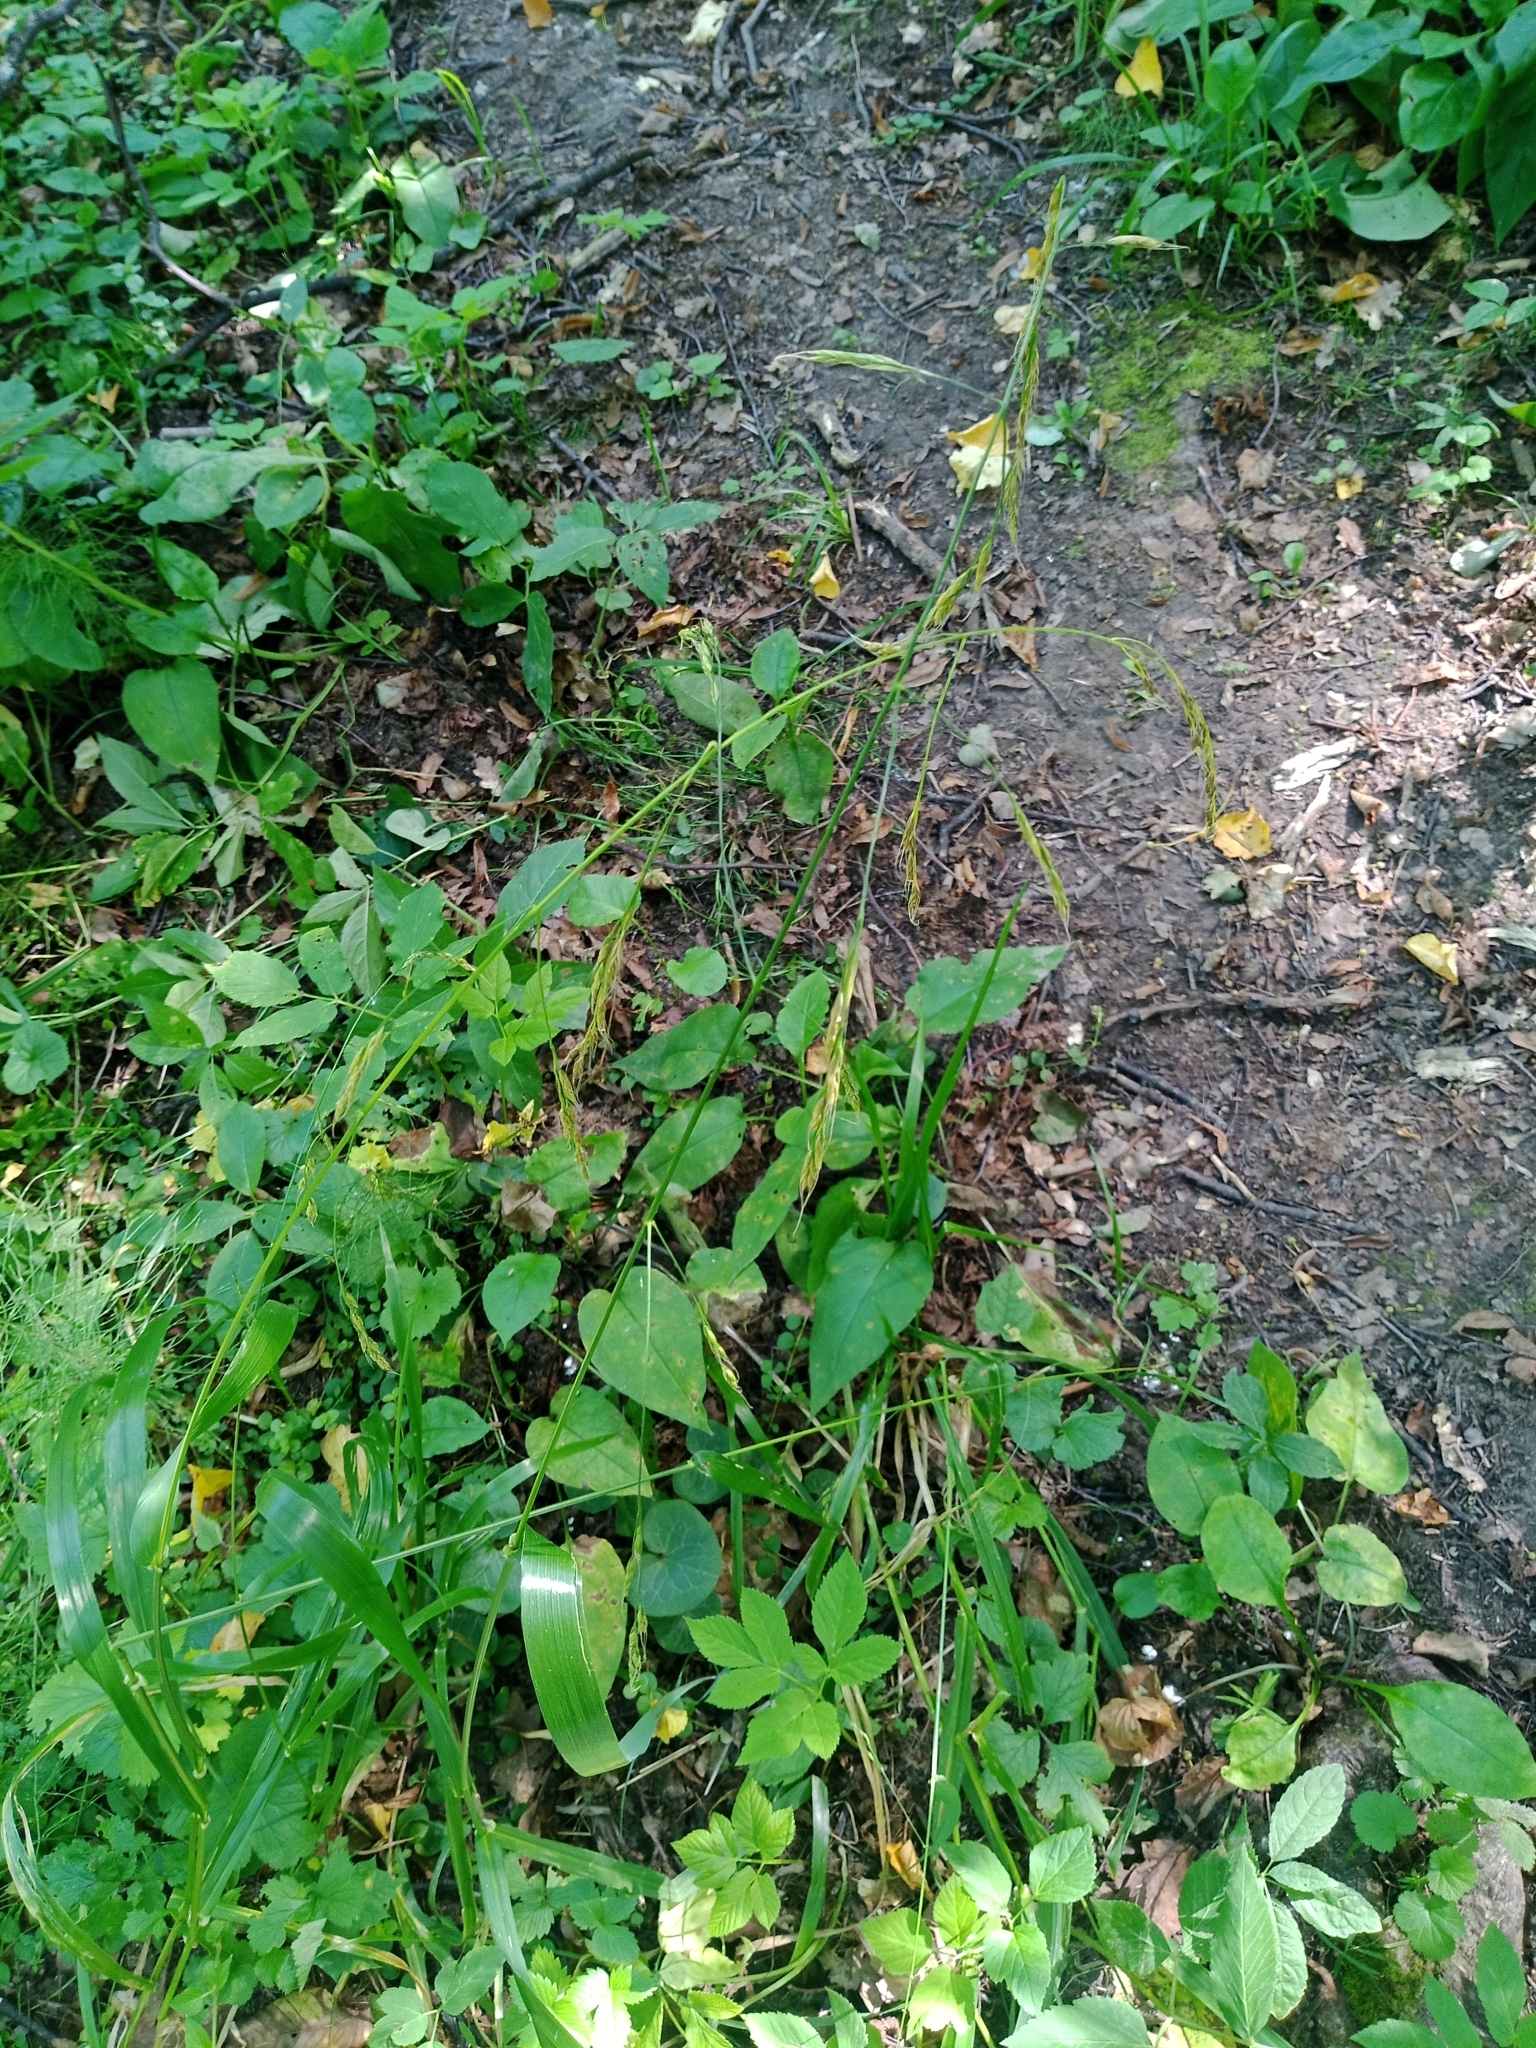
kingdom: Plantae
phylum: Tracheophyta
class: Liliopsida
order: Poales
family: Poaceae
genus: Lolium
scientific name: Lolium giganteum
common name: Giant fescue
